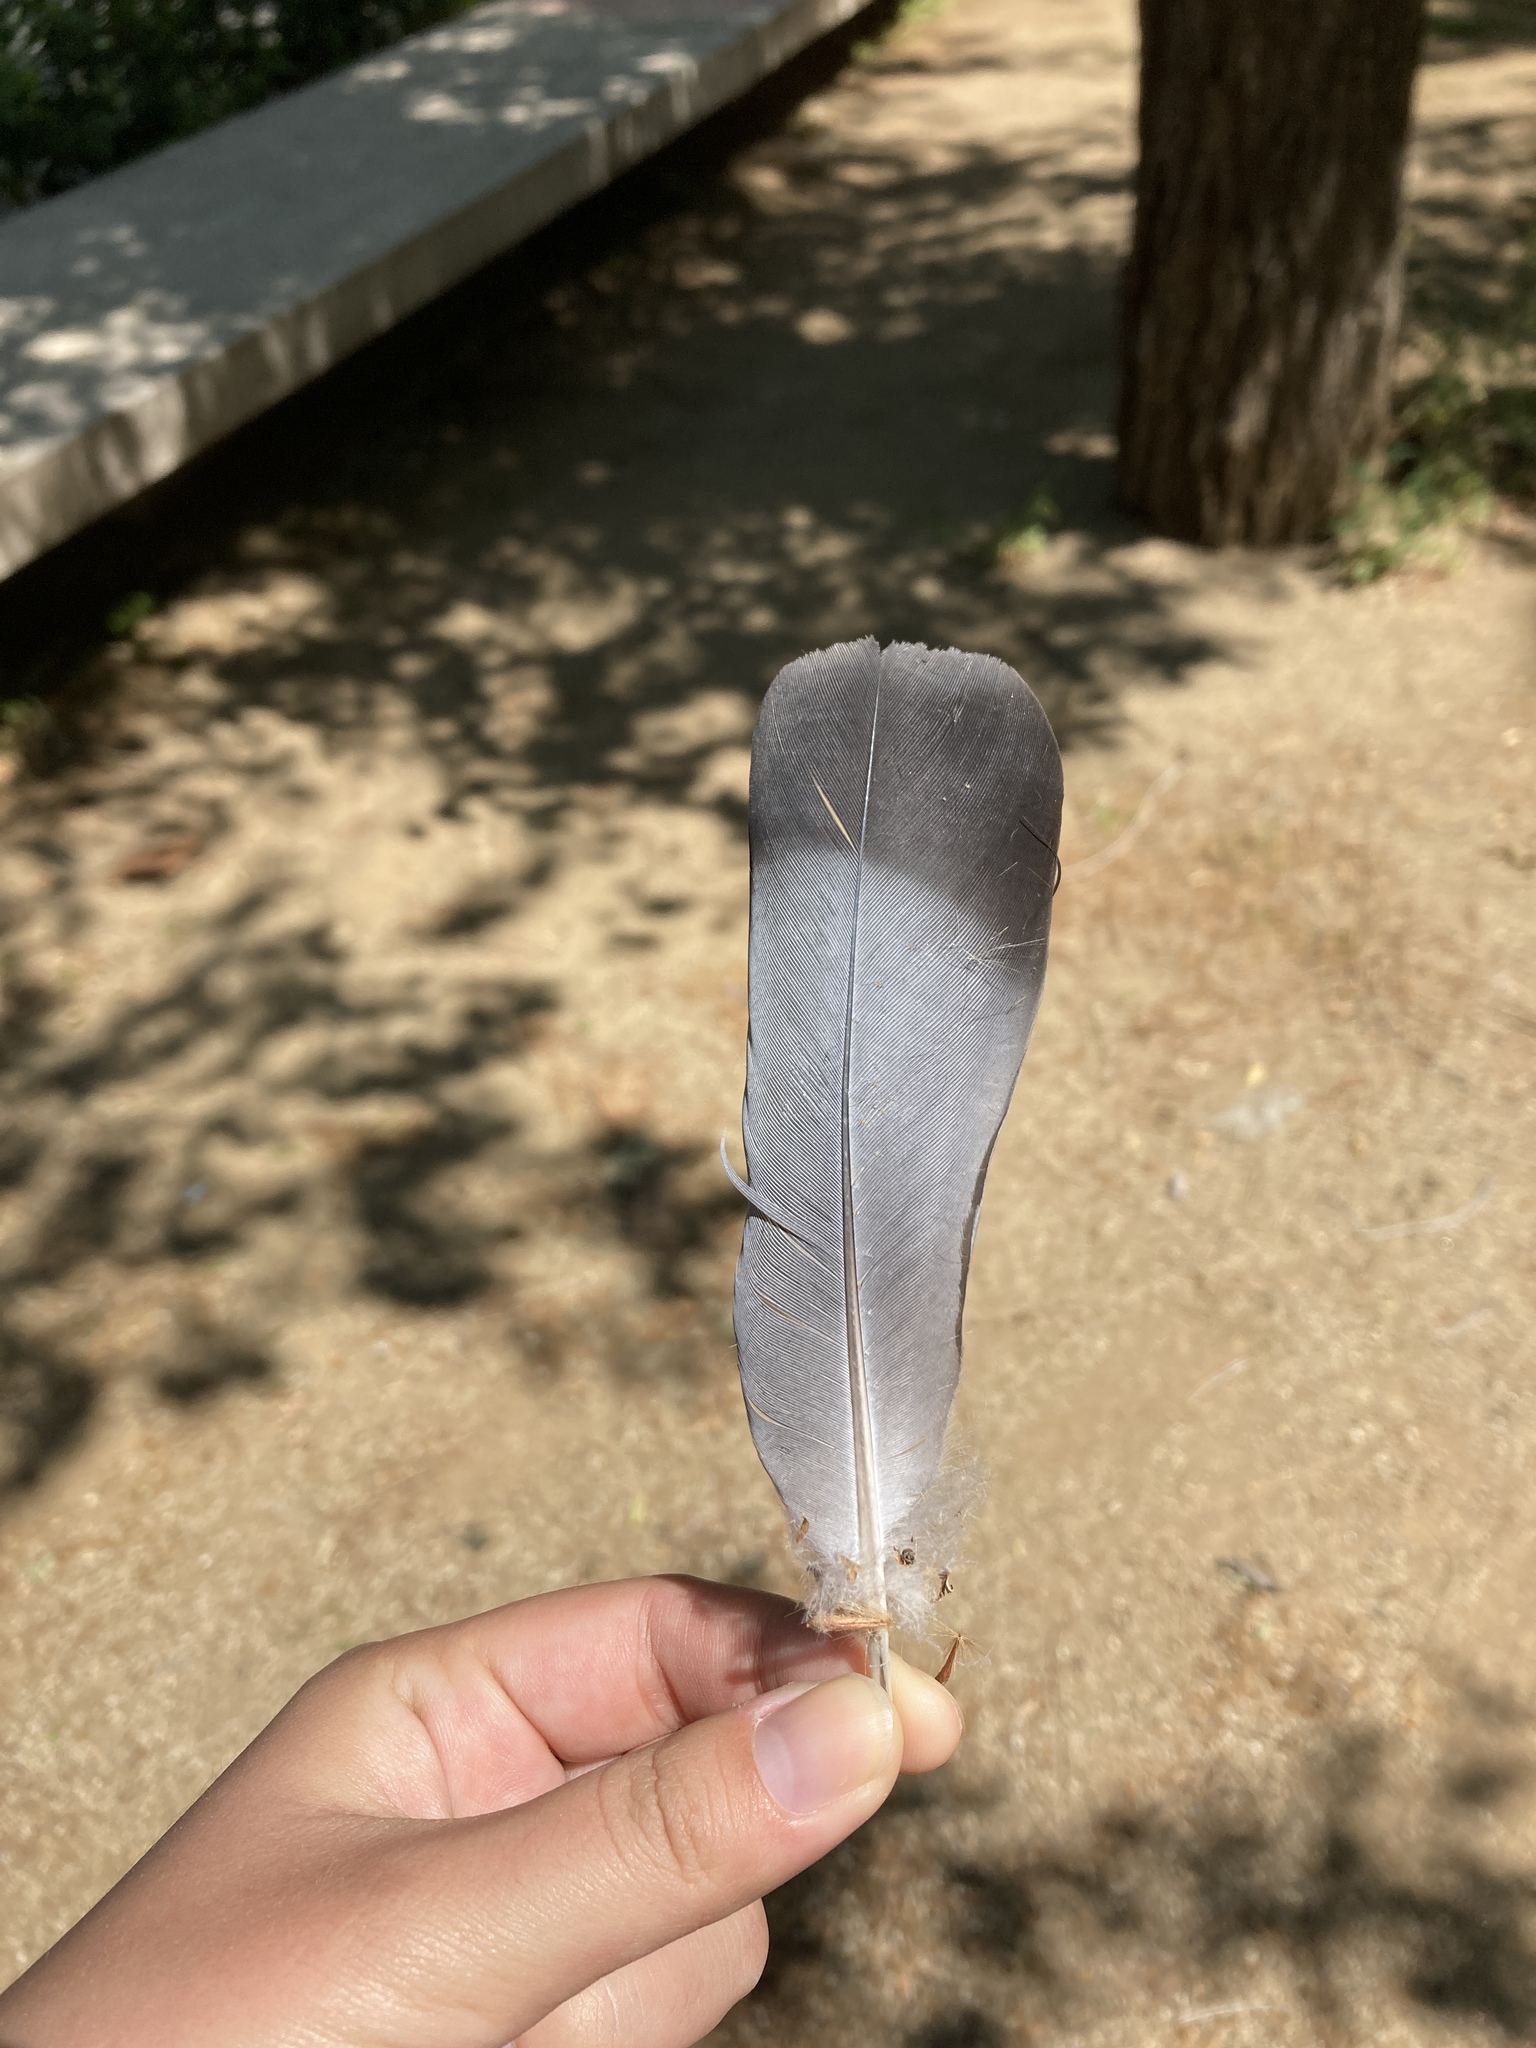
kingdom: Animalia
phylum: Chordata
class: Aves
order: Columbiformes
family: Columbidae
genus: Columba
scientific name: Columba livia
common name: Rock pigeon
